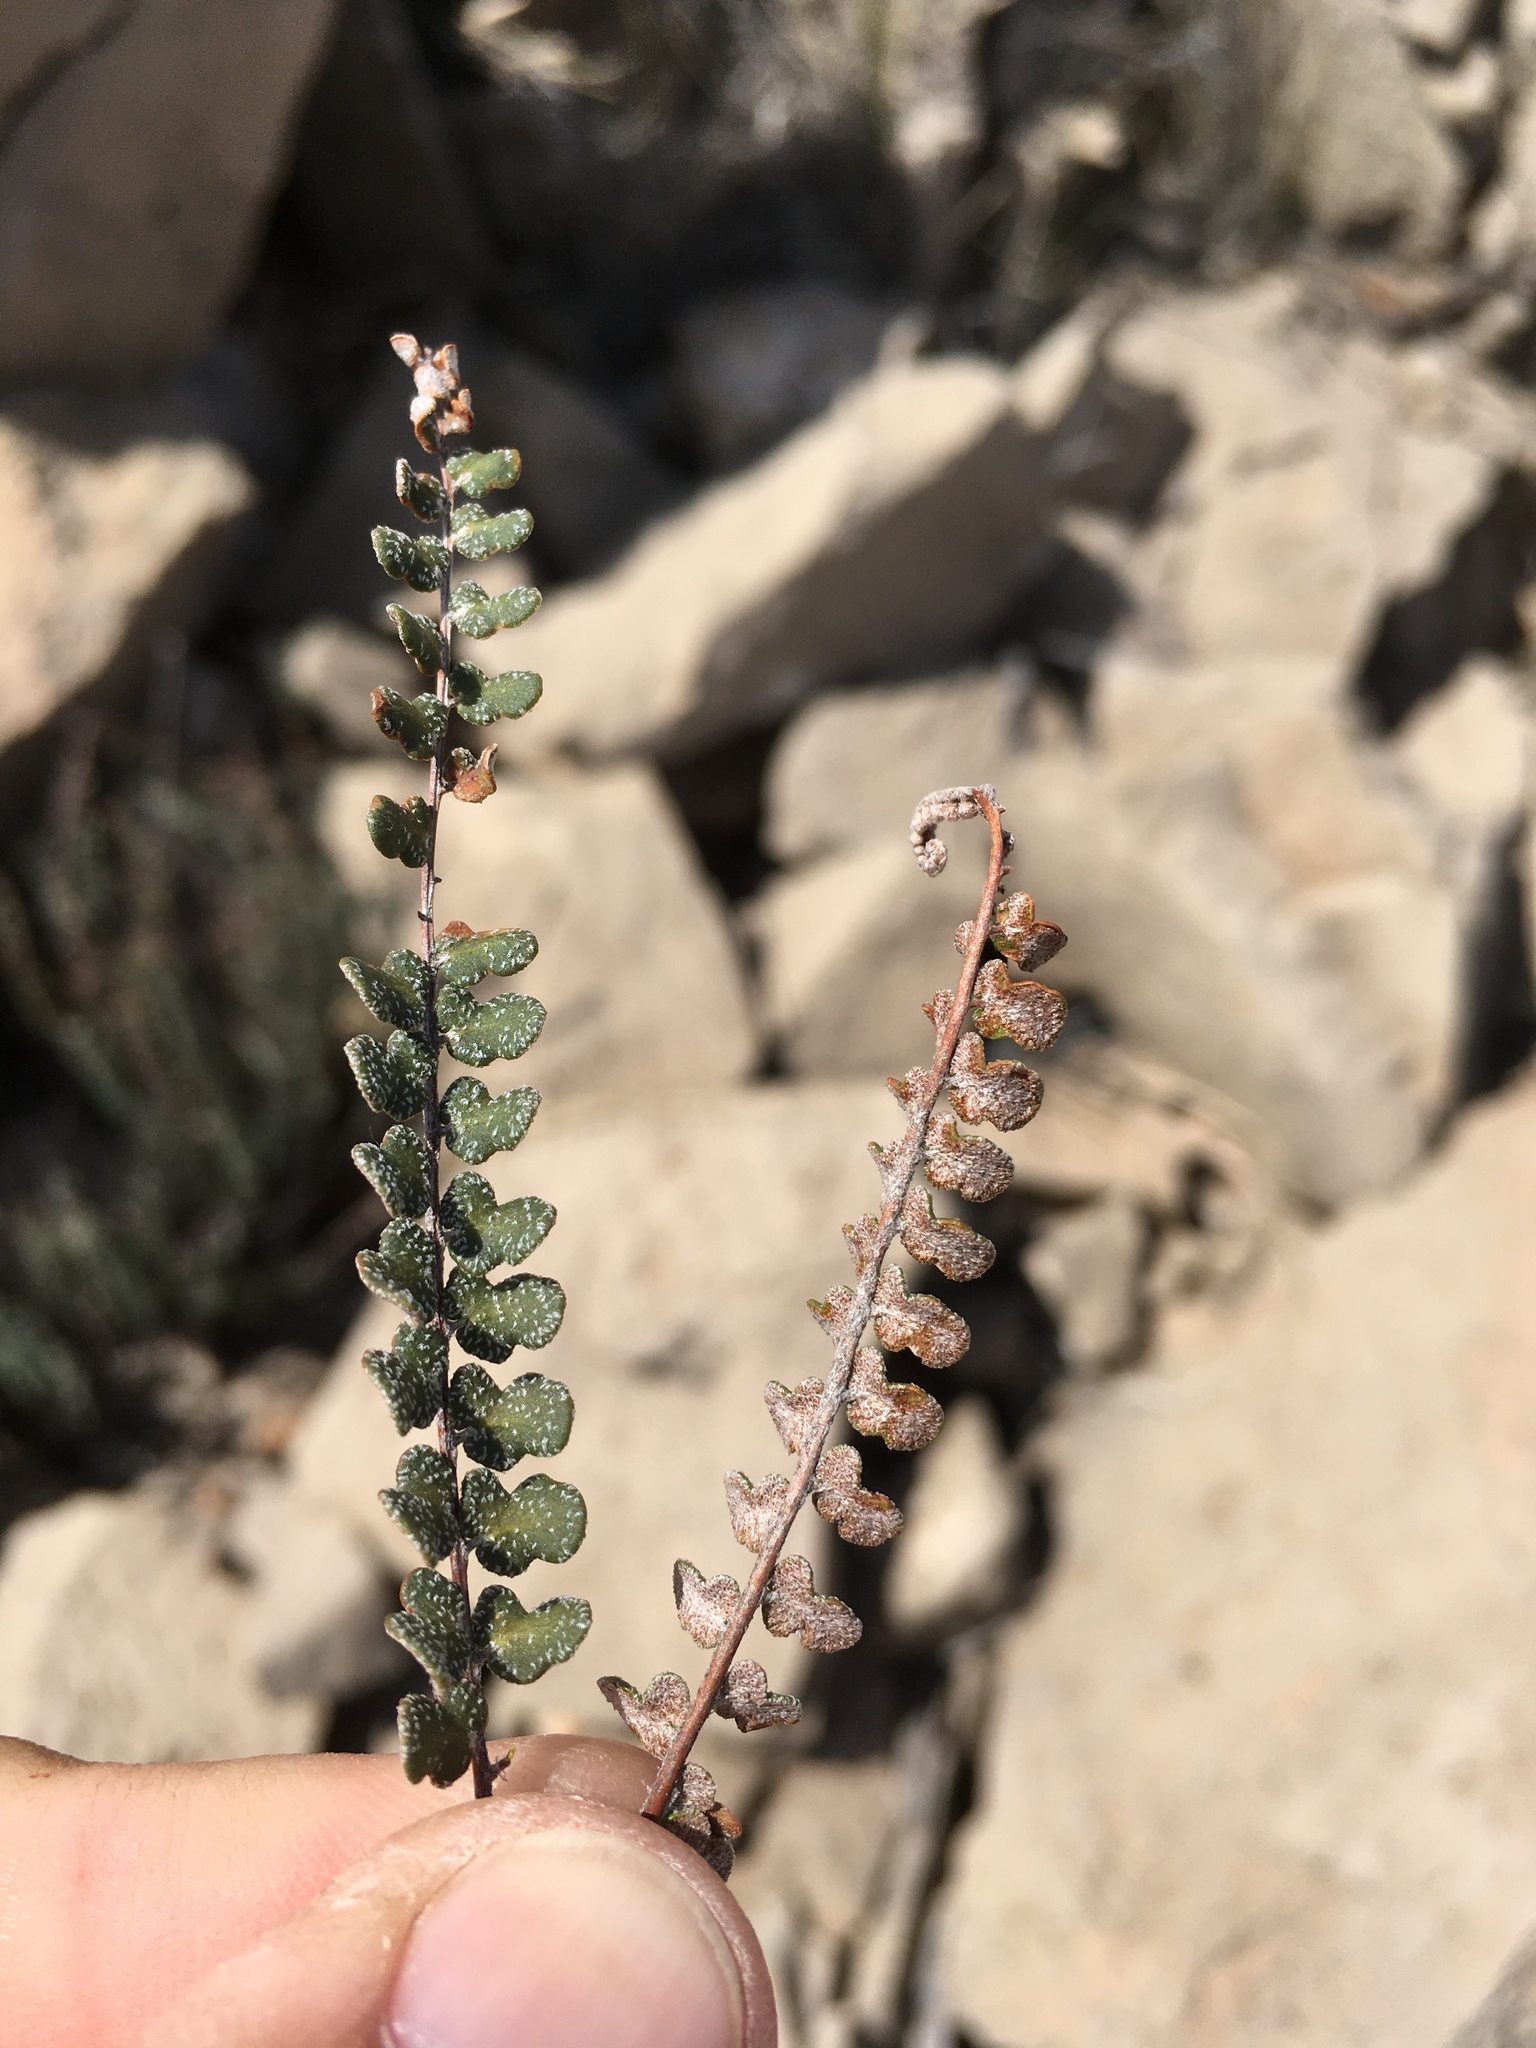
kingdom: Plantae
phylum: Tracheophyta
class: Polypodiopsida
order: Polypodiales
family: Pteridaceae
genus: Astrolepis
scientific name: Astrolepis cochisensis
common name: Scaly cloak fern
